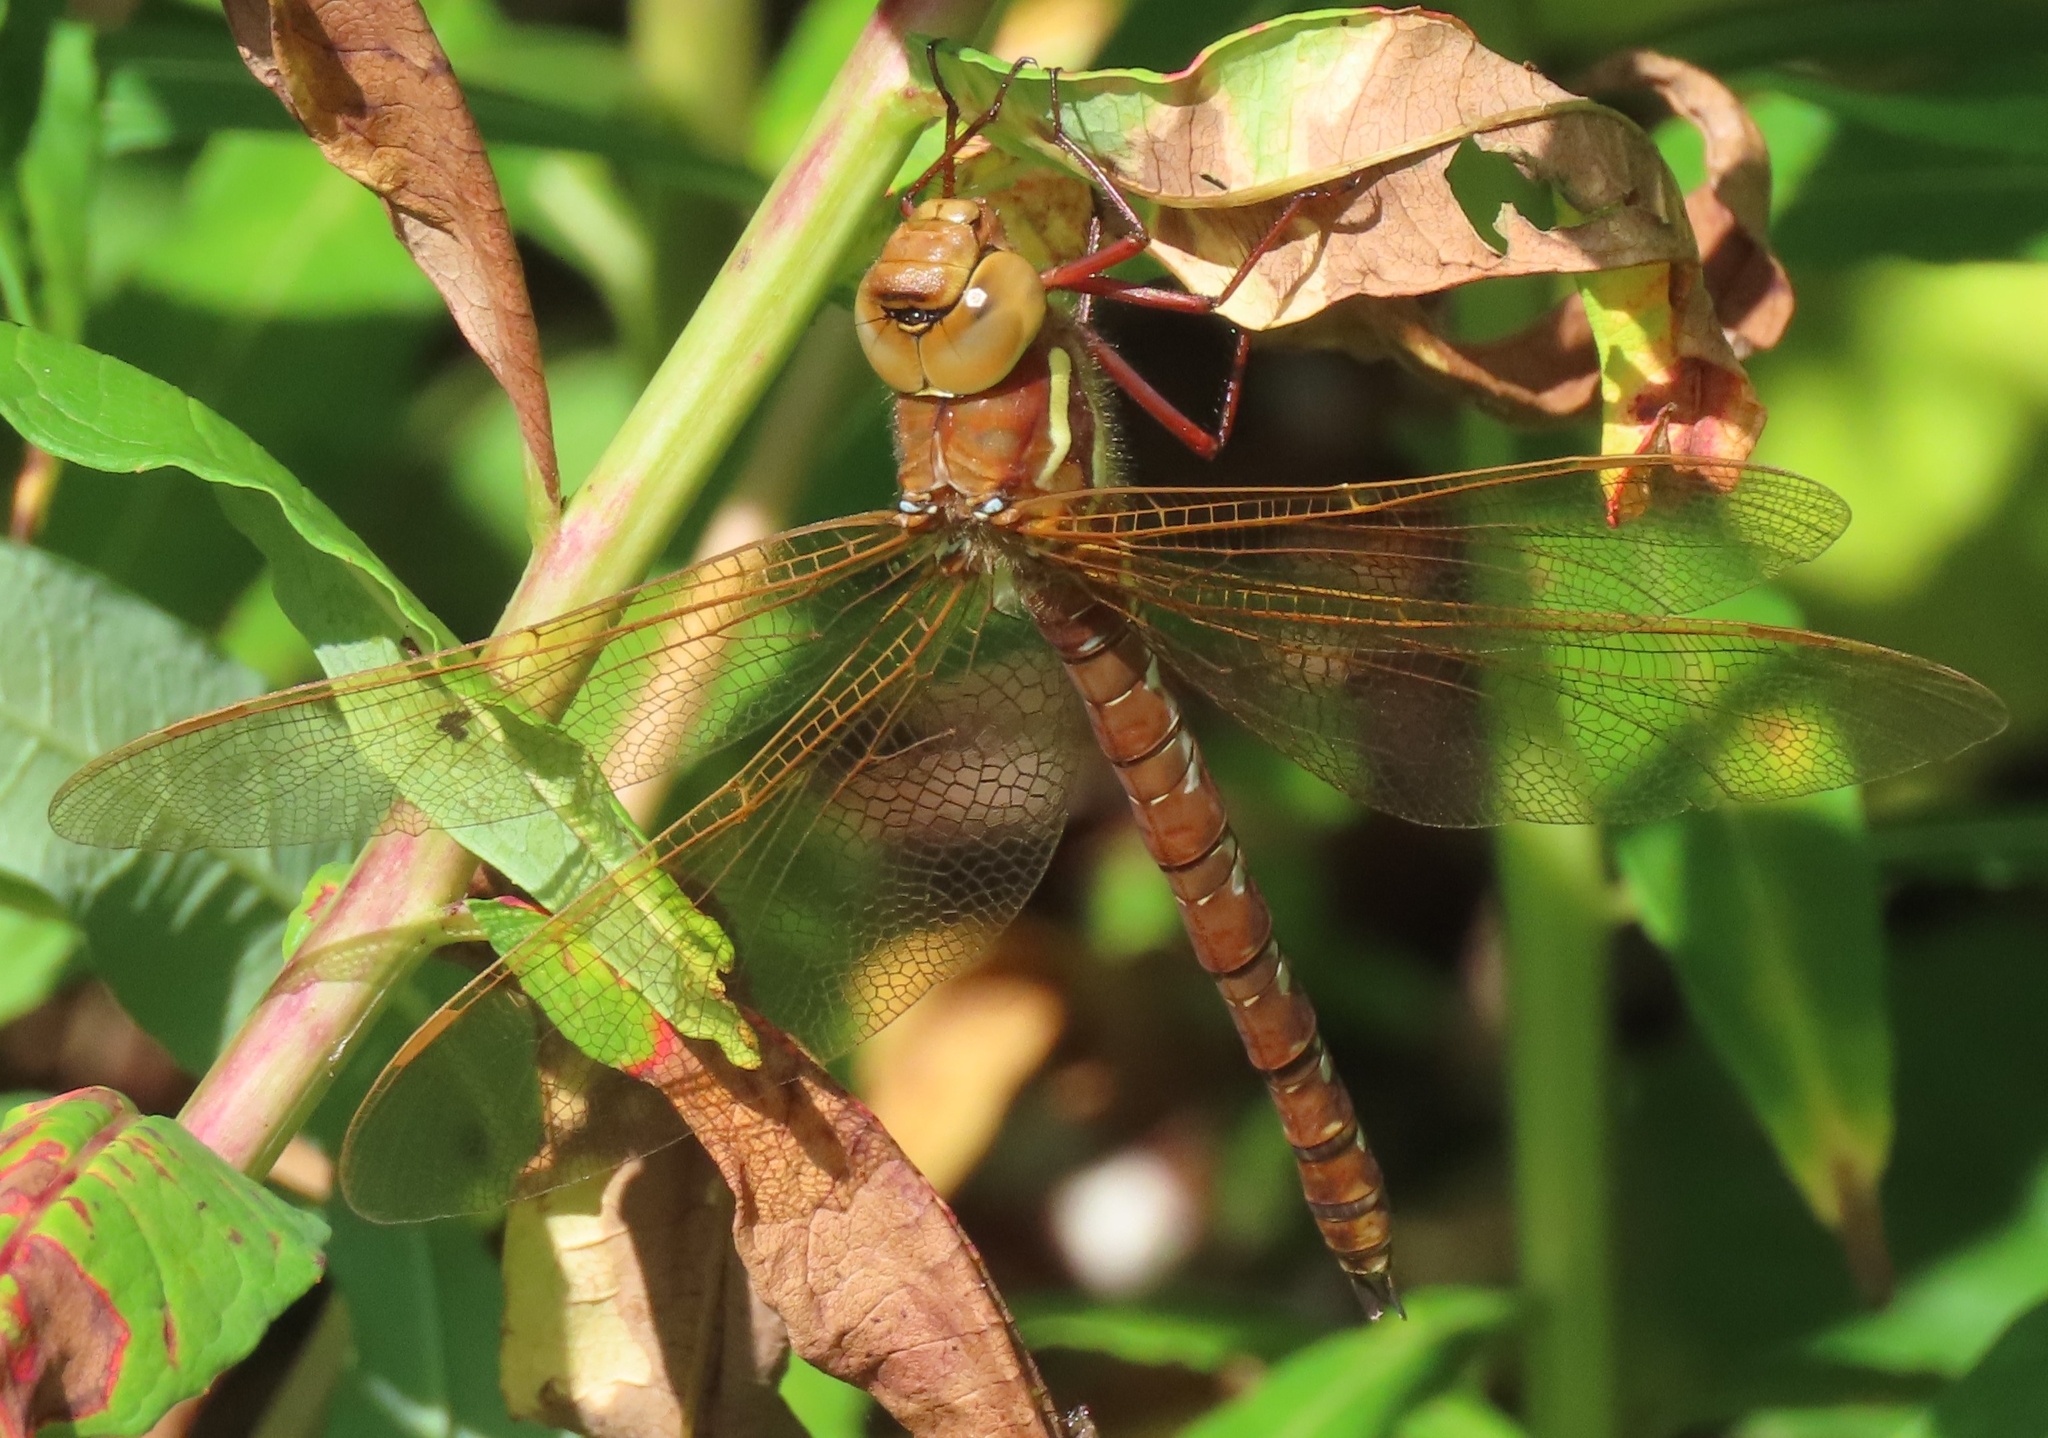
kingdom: Animalia
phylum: Arthropoda
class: Insecta
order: Odonata
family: Aeshnidae
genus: Aeshna
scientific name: Aeshna grandis
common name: Brown hawker
